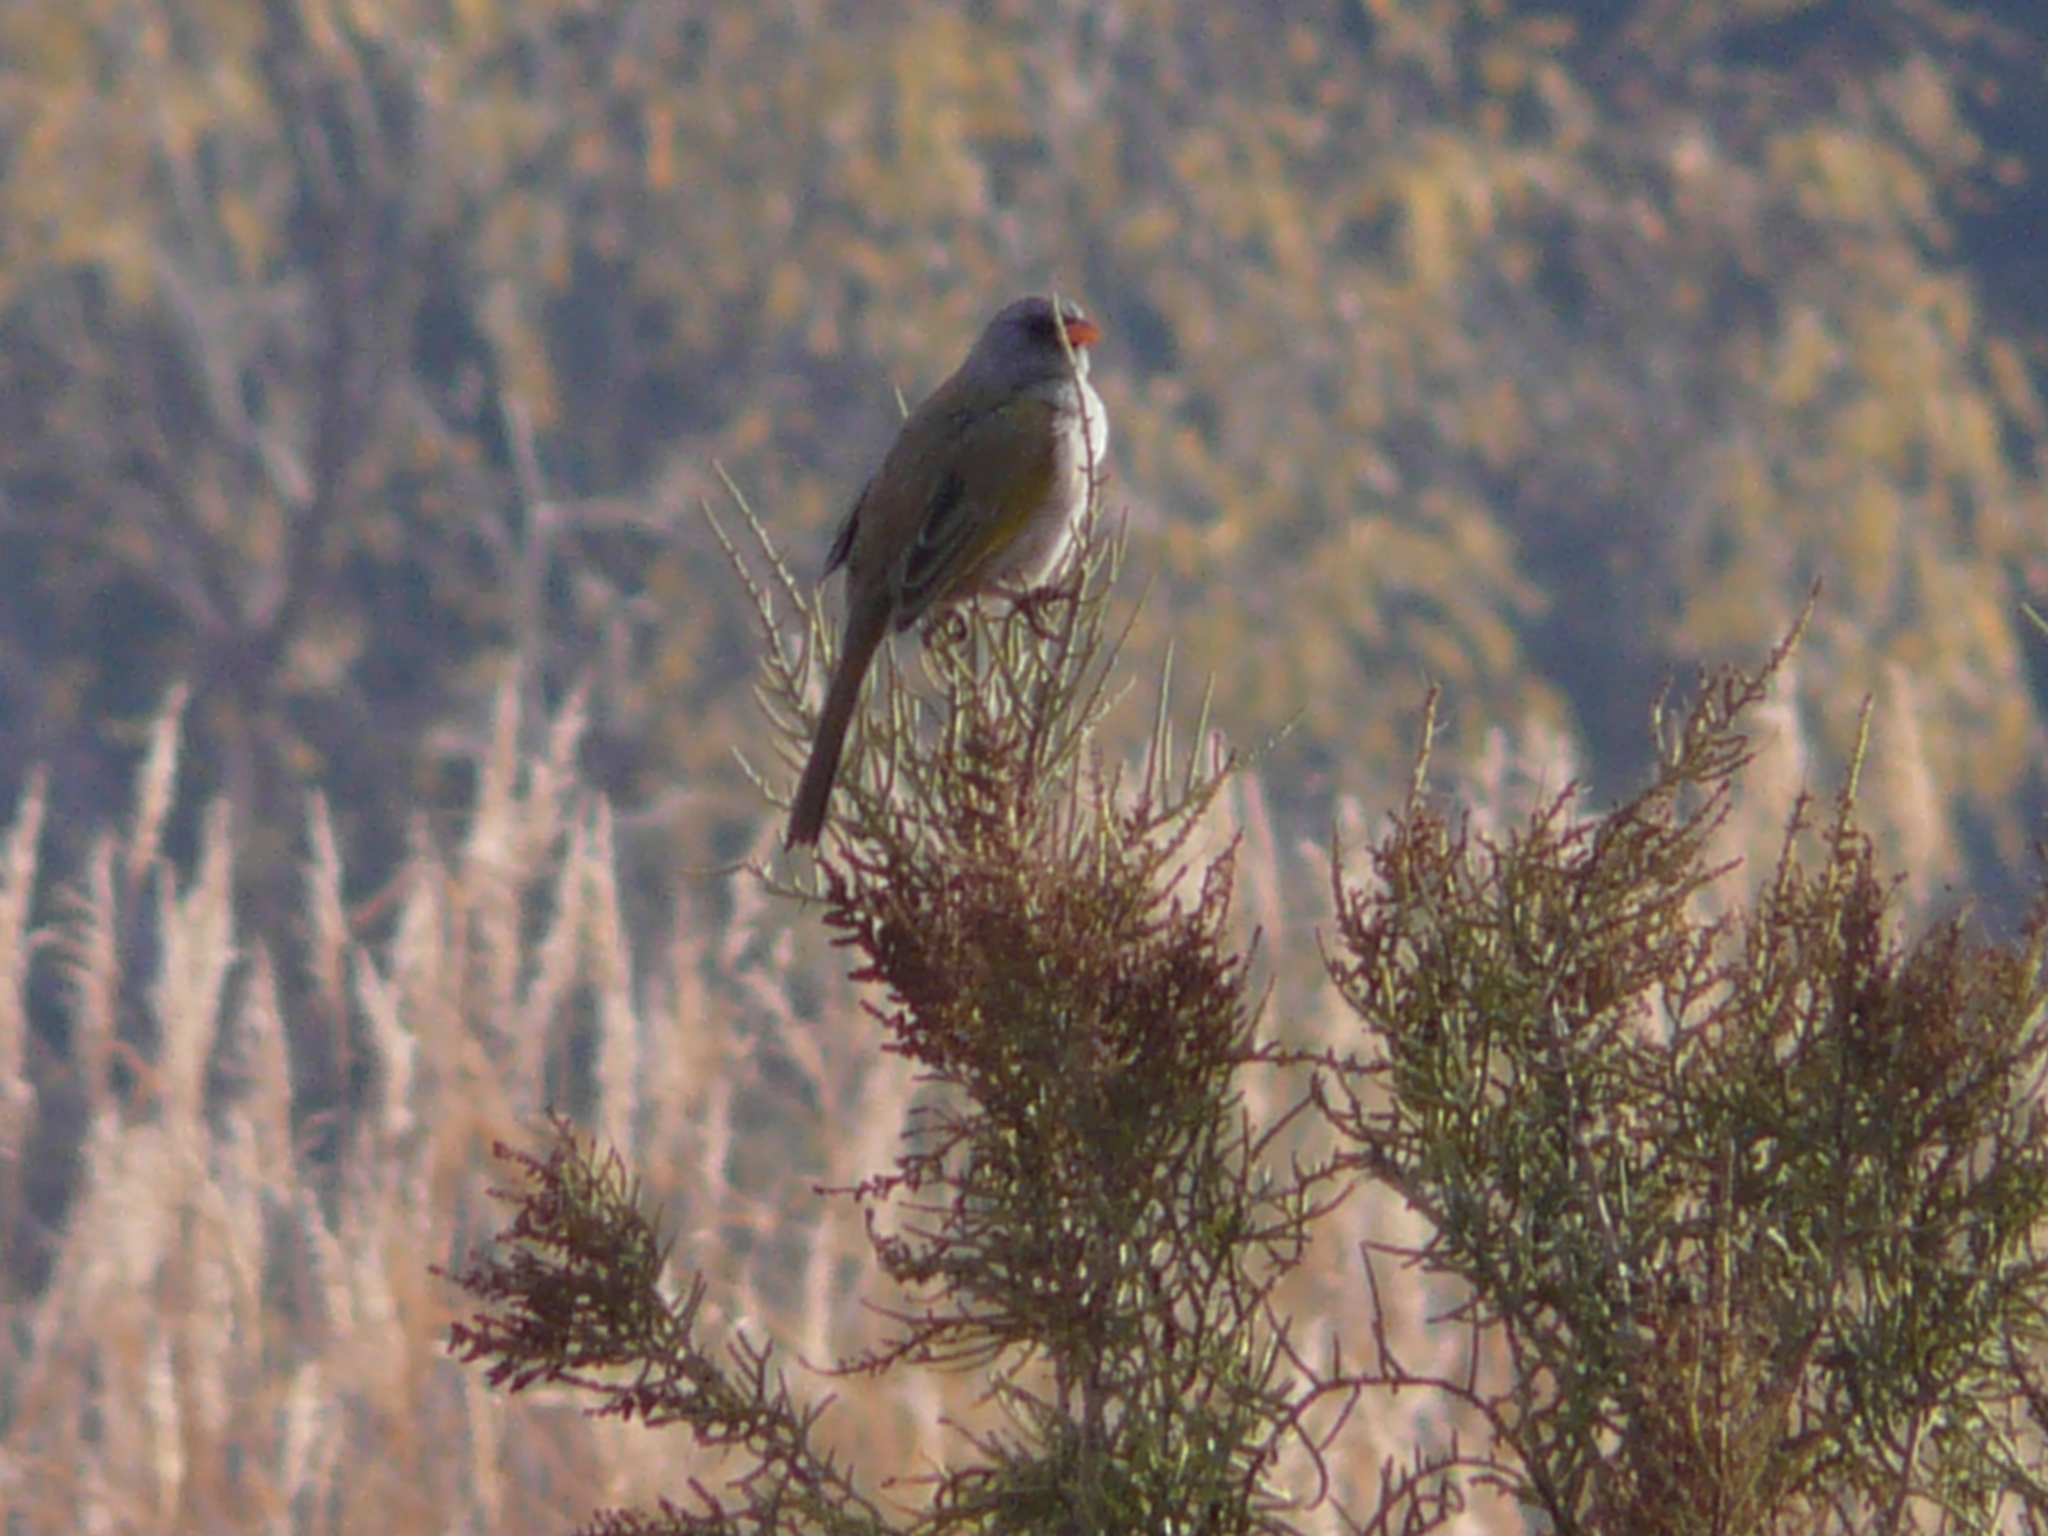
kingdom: Animalia
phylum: Chordata
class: Aves
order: Passeriformes
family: Thraupidae
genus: Embernagra
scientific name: Embernagra platensis
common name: Pampa finch
